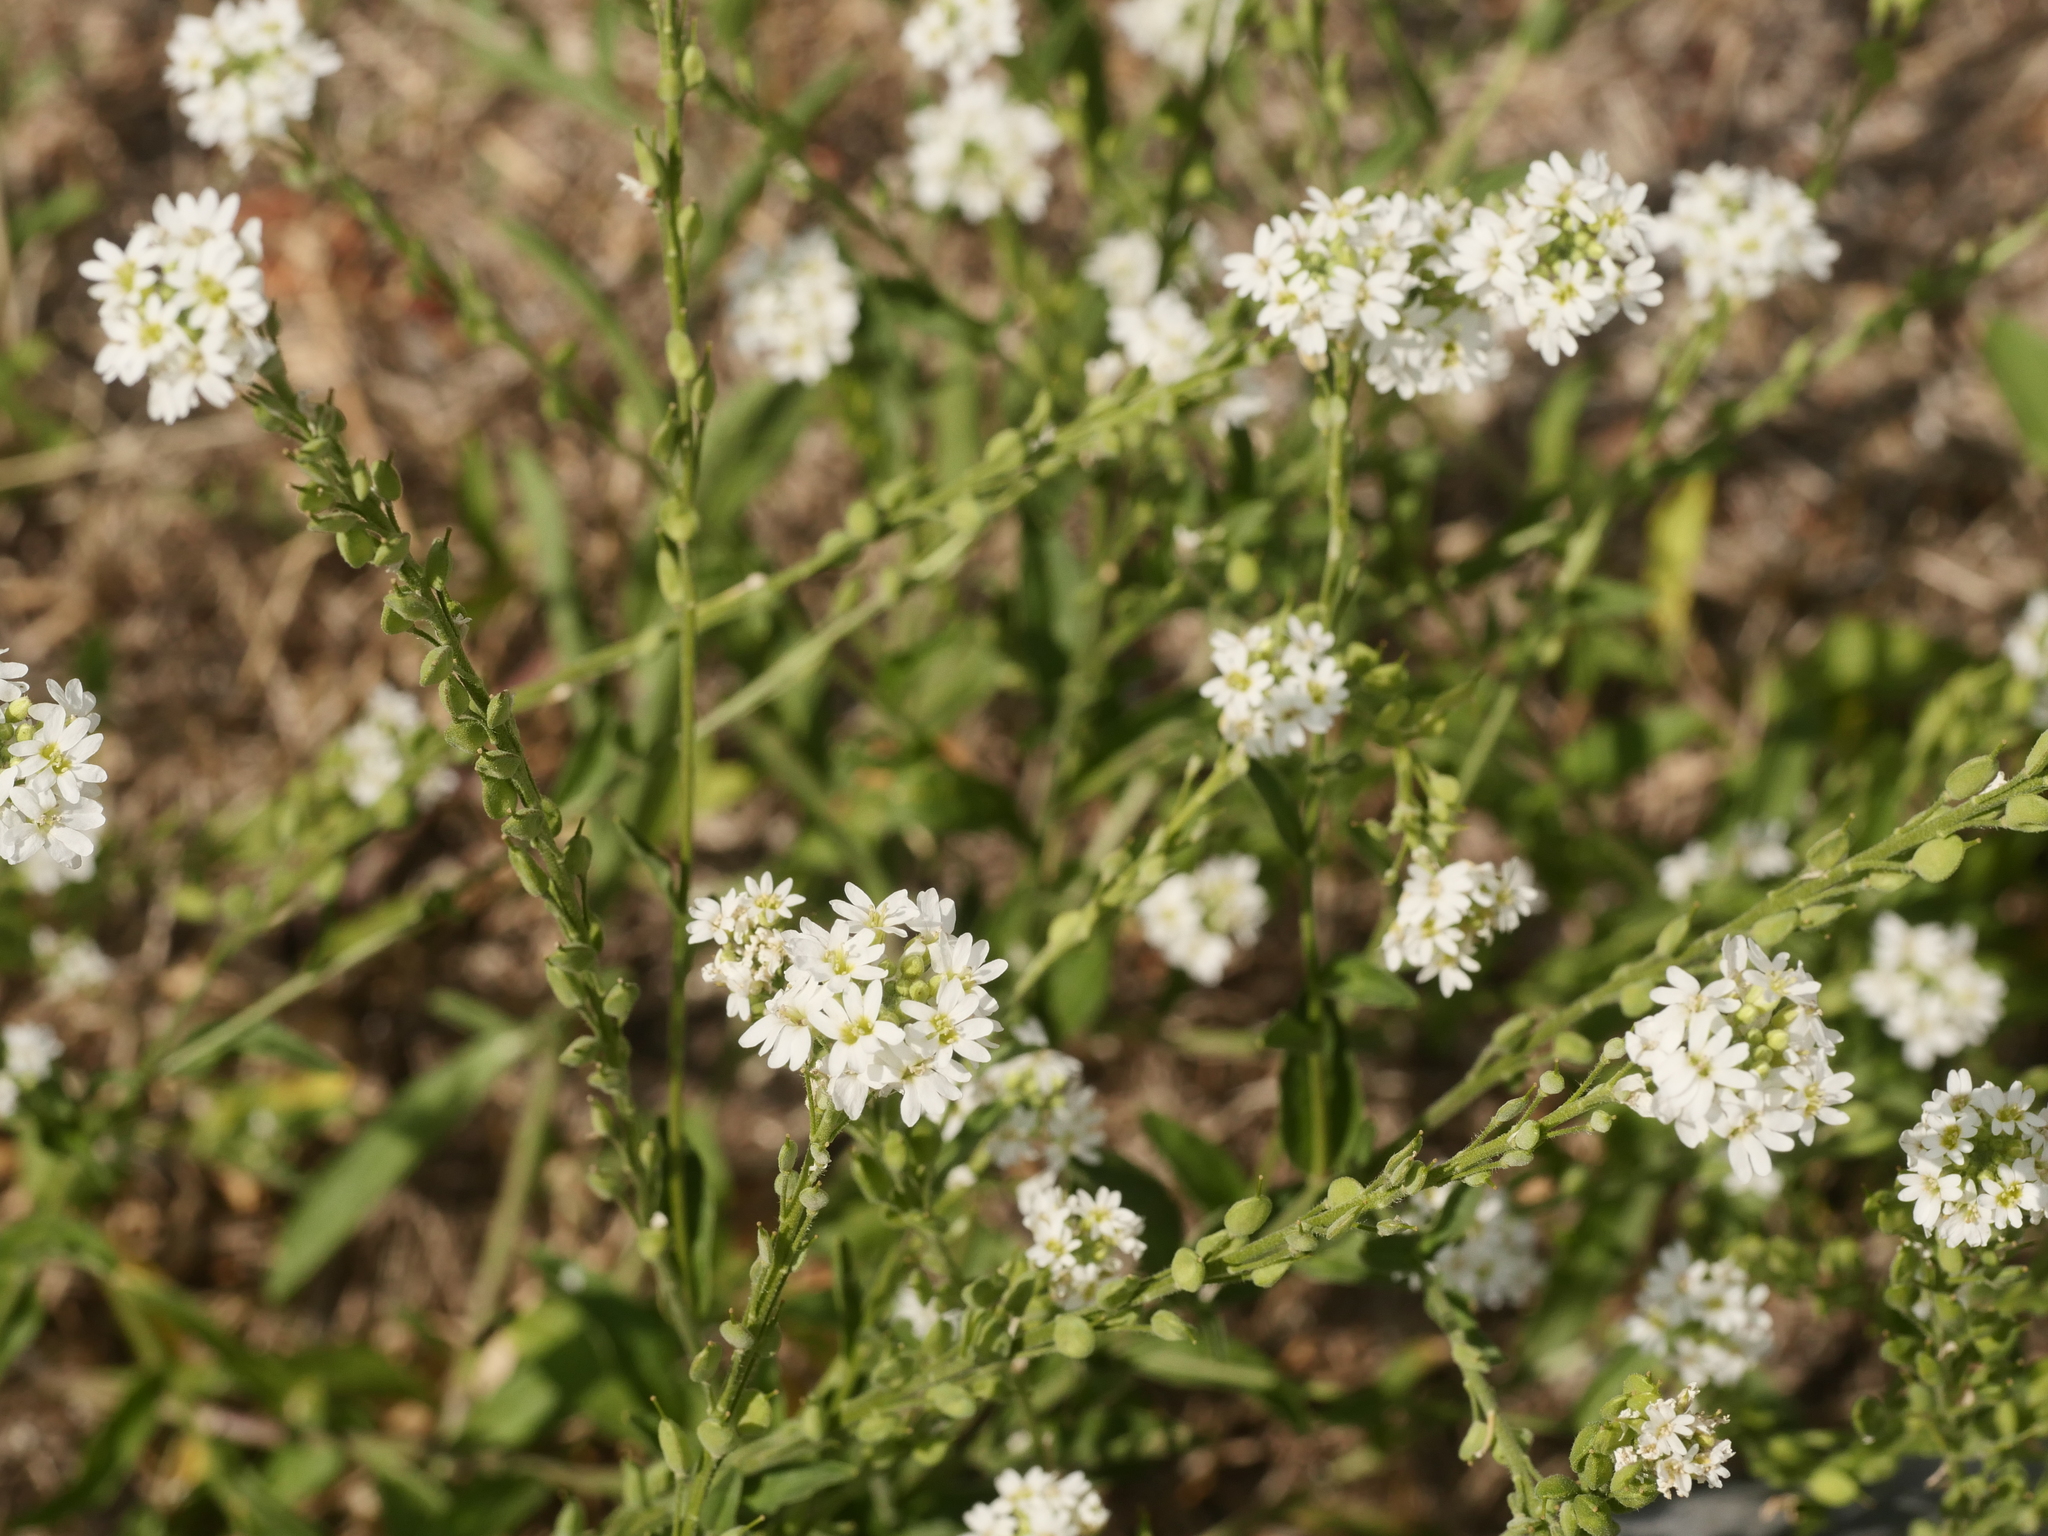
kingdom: Plantae
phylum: Tracheophyta
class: Magnoliopsida
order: Brassicales
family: Brassicaceae
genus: Berteroa
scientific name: Berteroa incana
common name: Hoary alison
